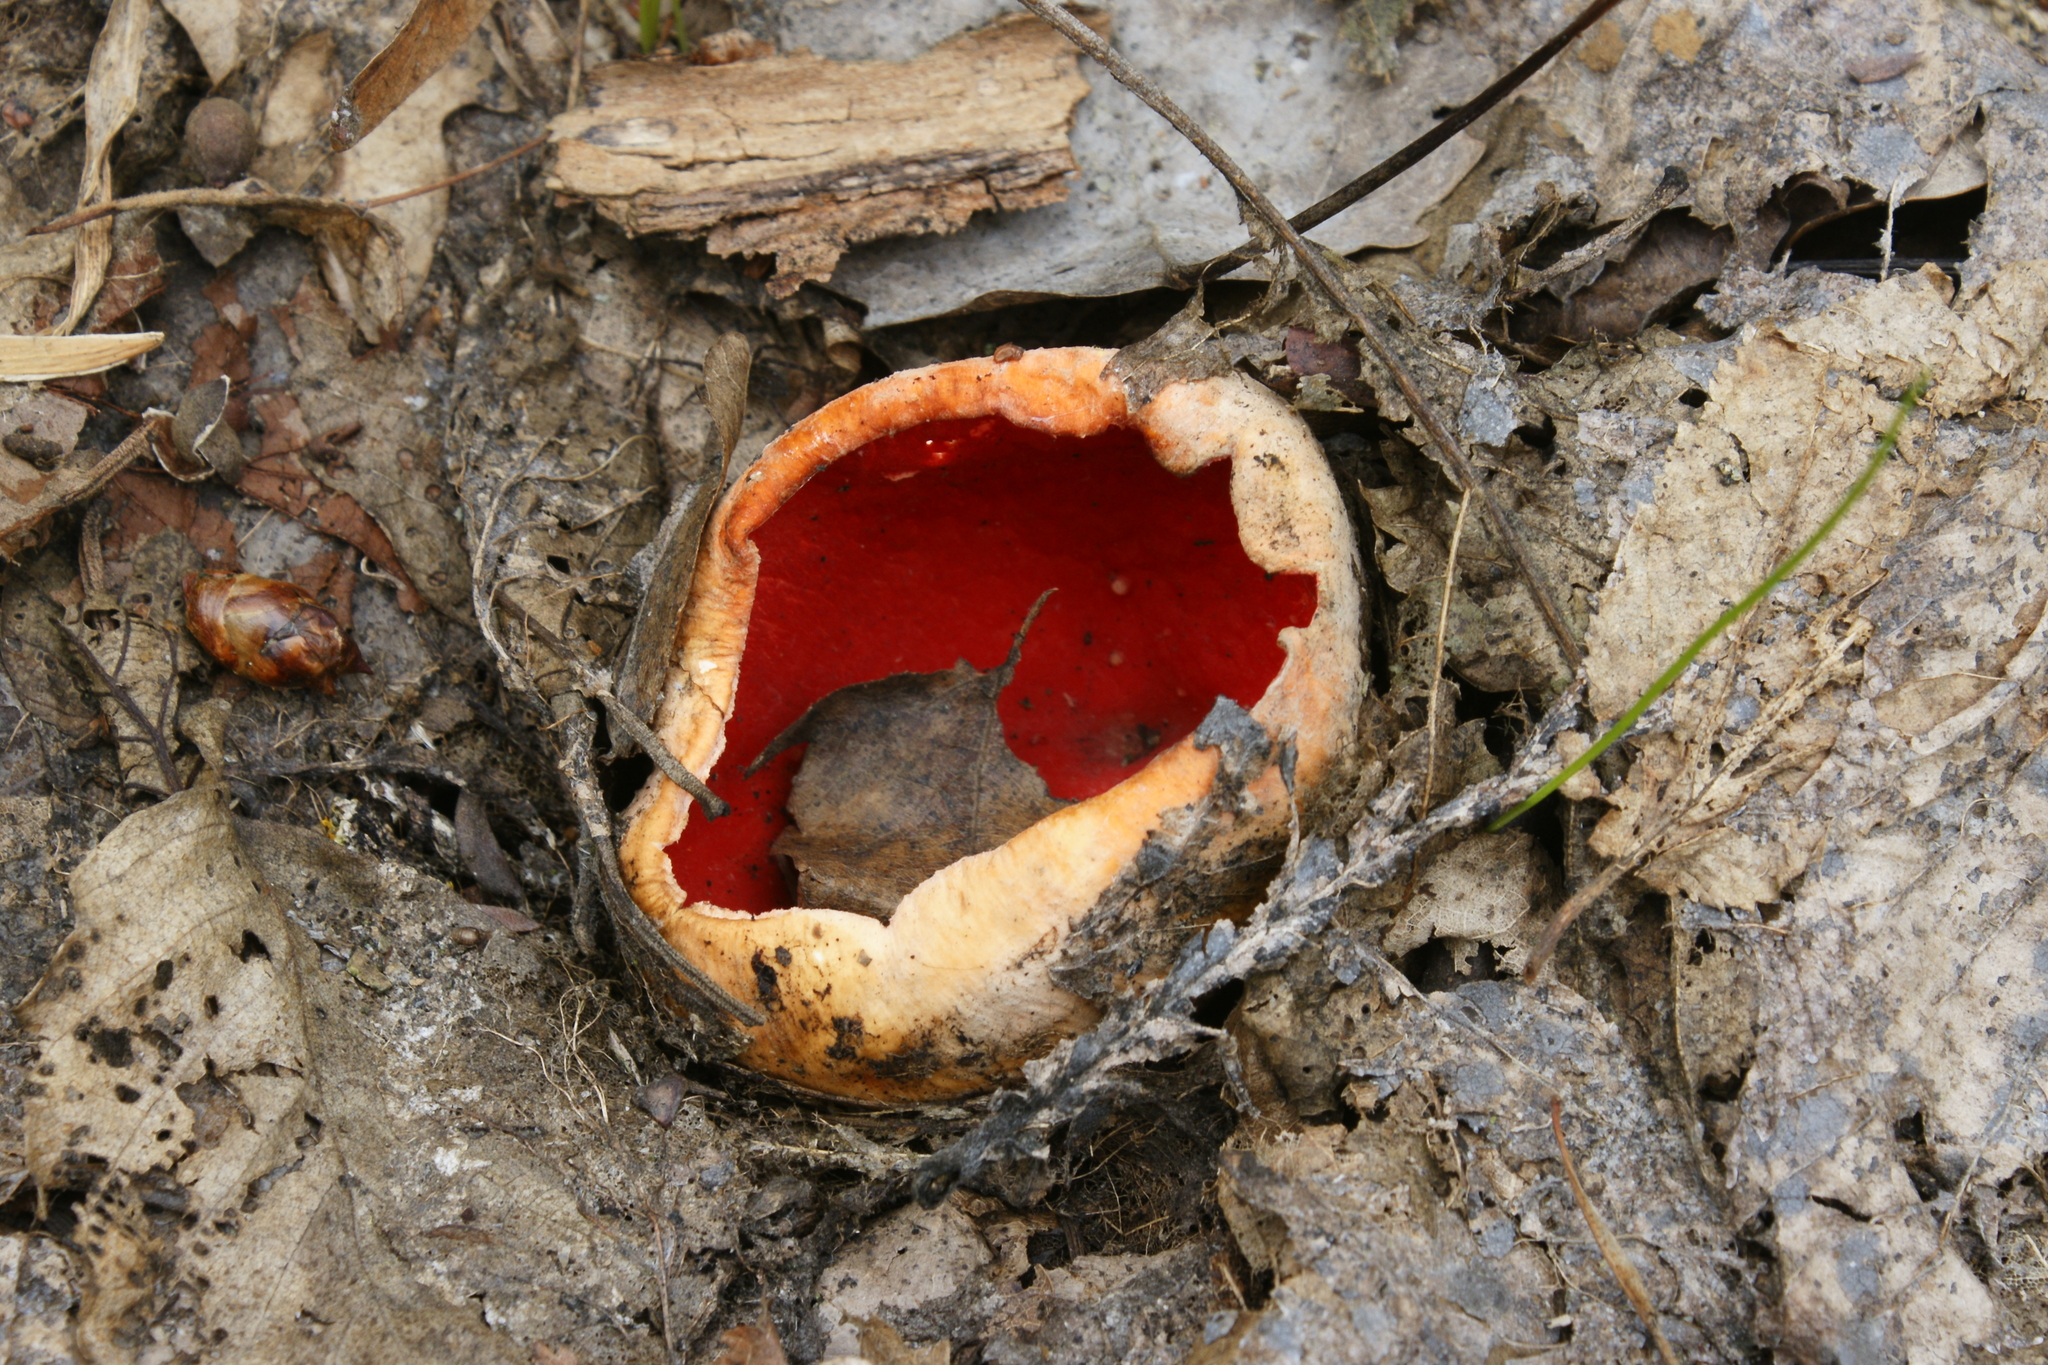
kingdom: Fungi
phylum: Ascomycota
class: Pezizomycetes
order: Pezizales
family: Sarcoscyphaceae
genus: Sarcoscypha
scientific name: Sarcoscypha
